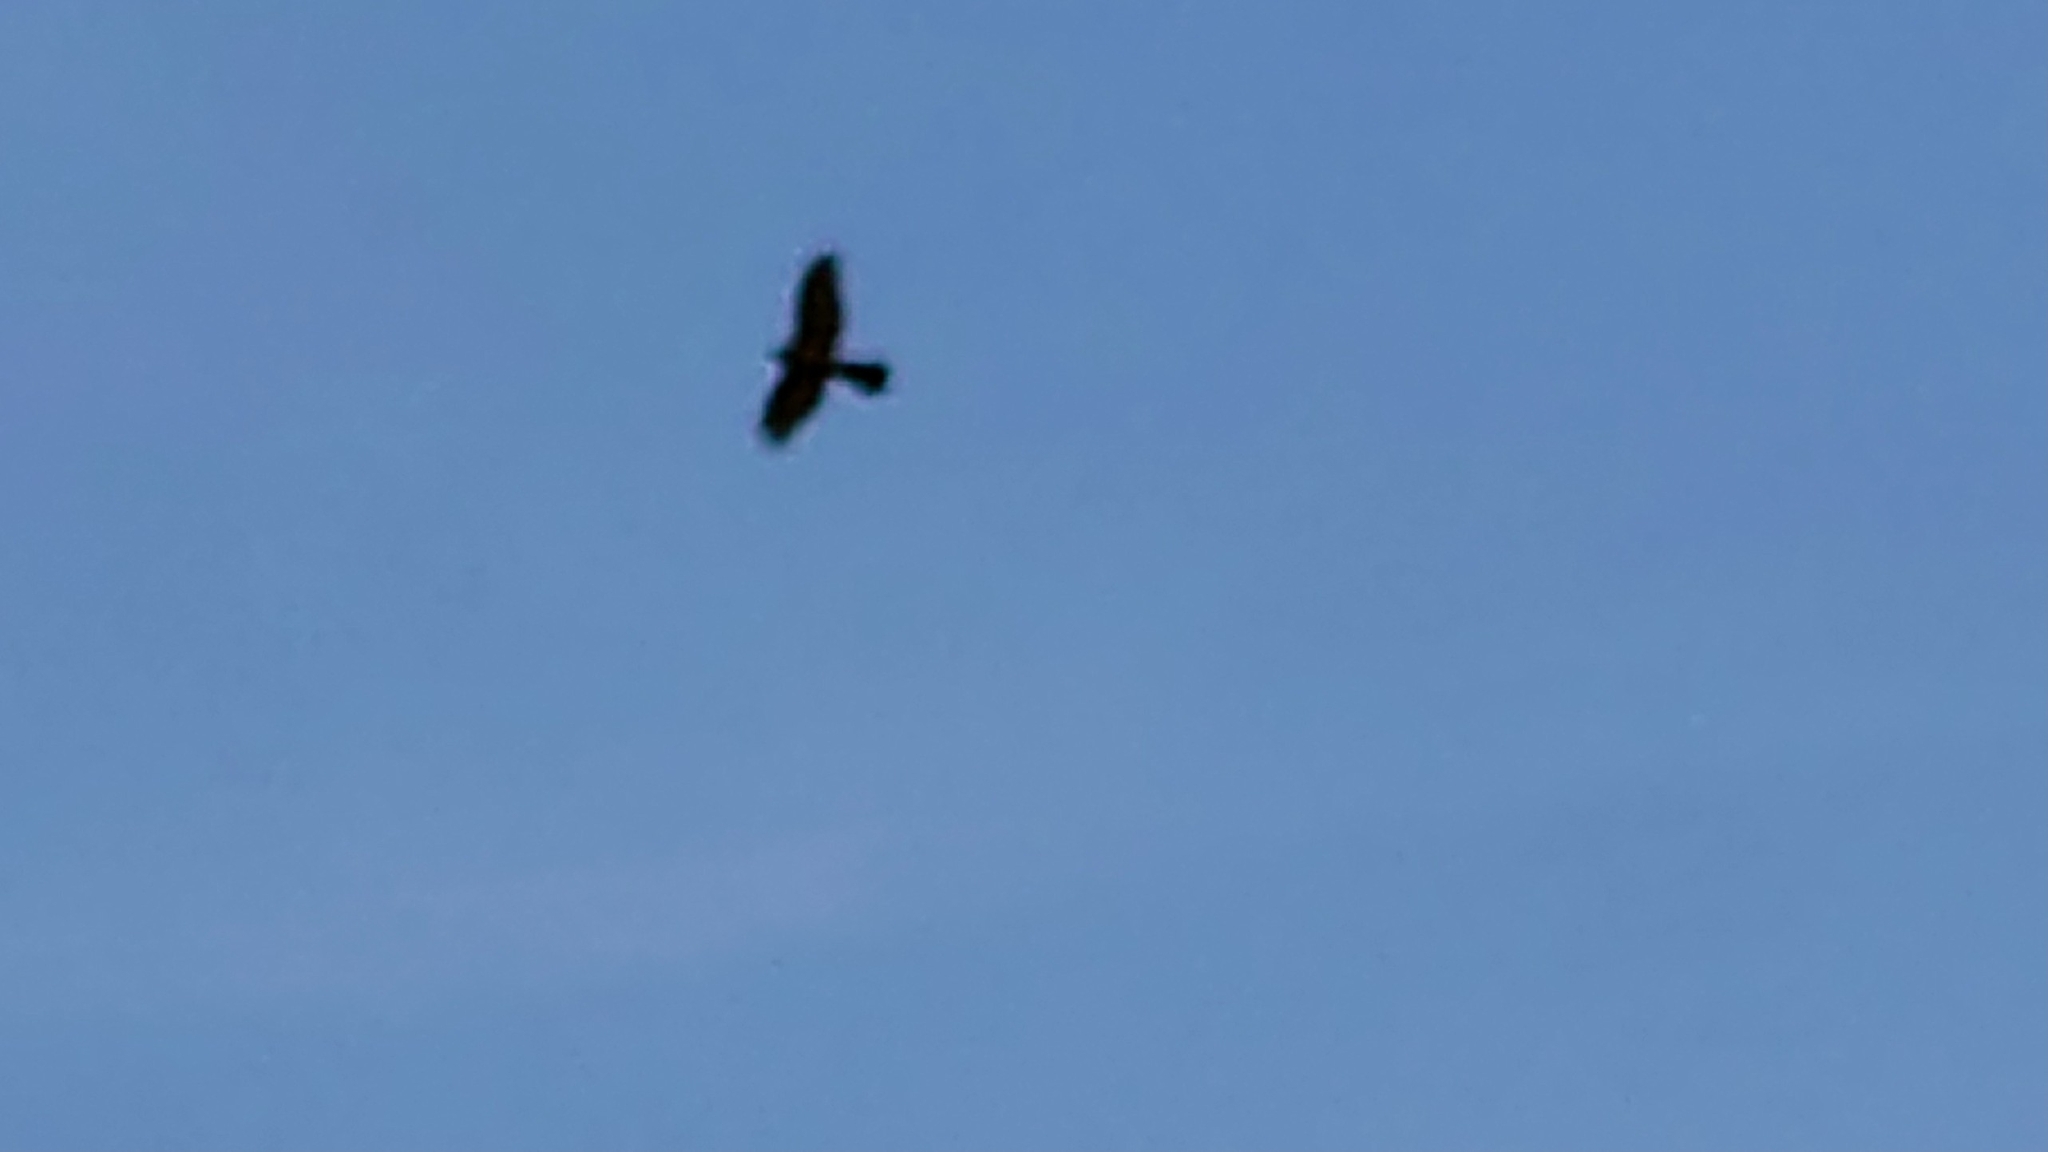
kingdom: Animalia
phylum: Chordata
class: Aves
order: Accipitriformes
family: Accipitridae
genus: Accipiter
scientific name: Accipiter nisus
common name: Eurasian sparrowhawk
